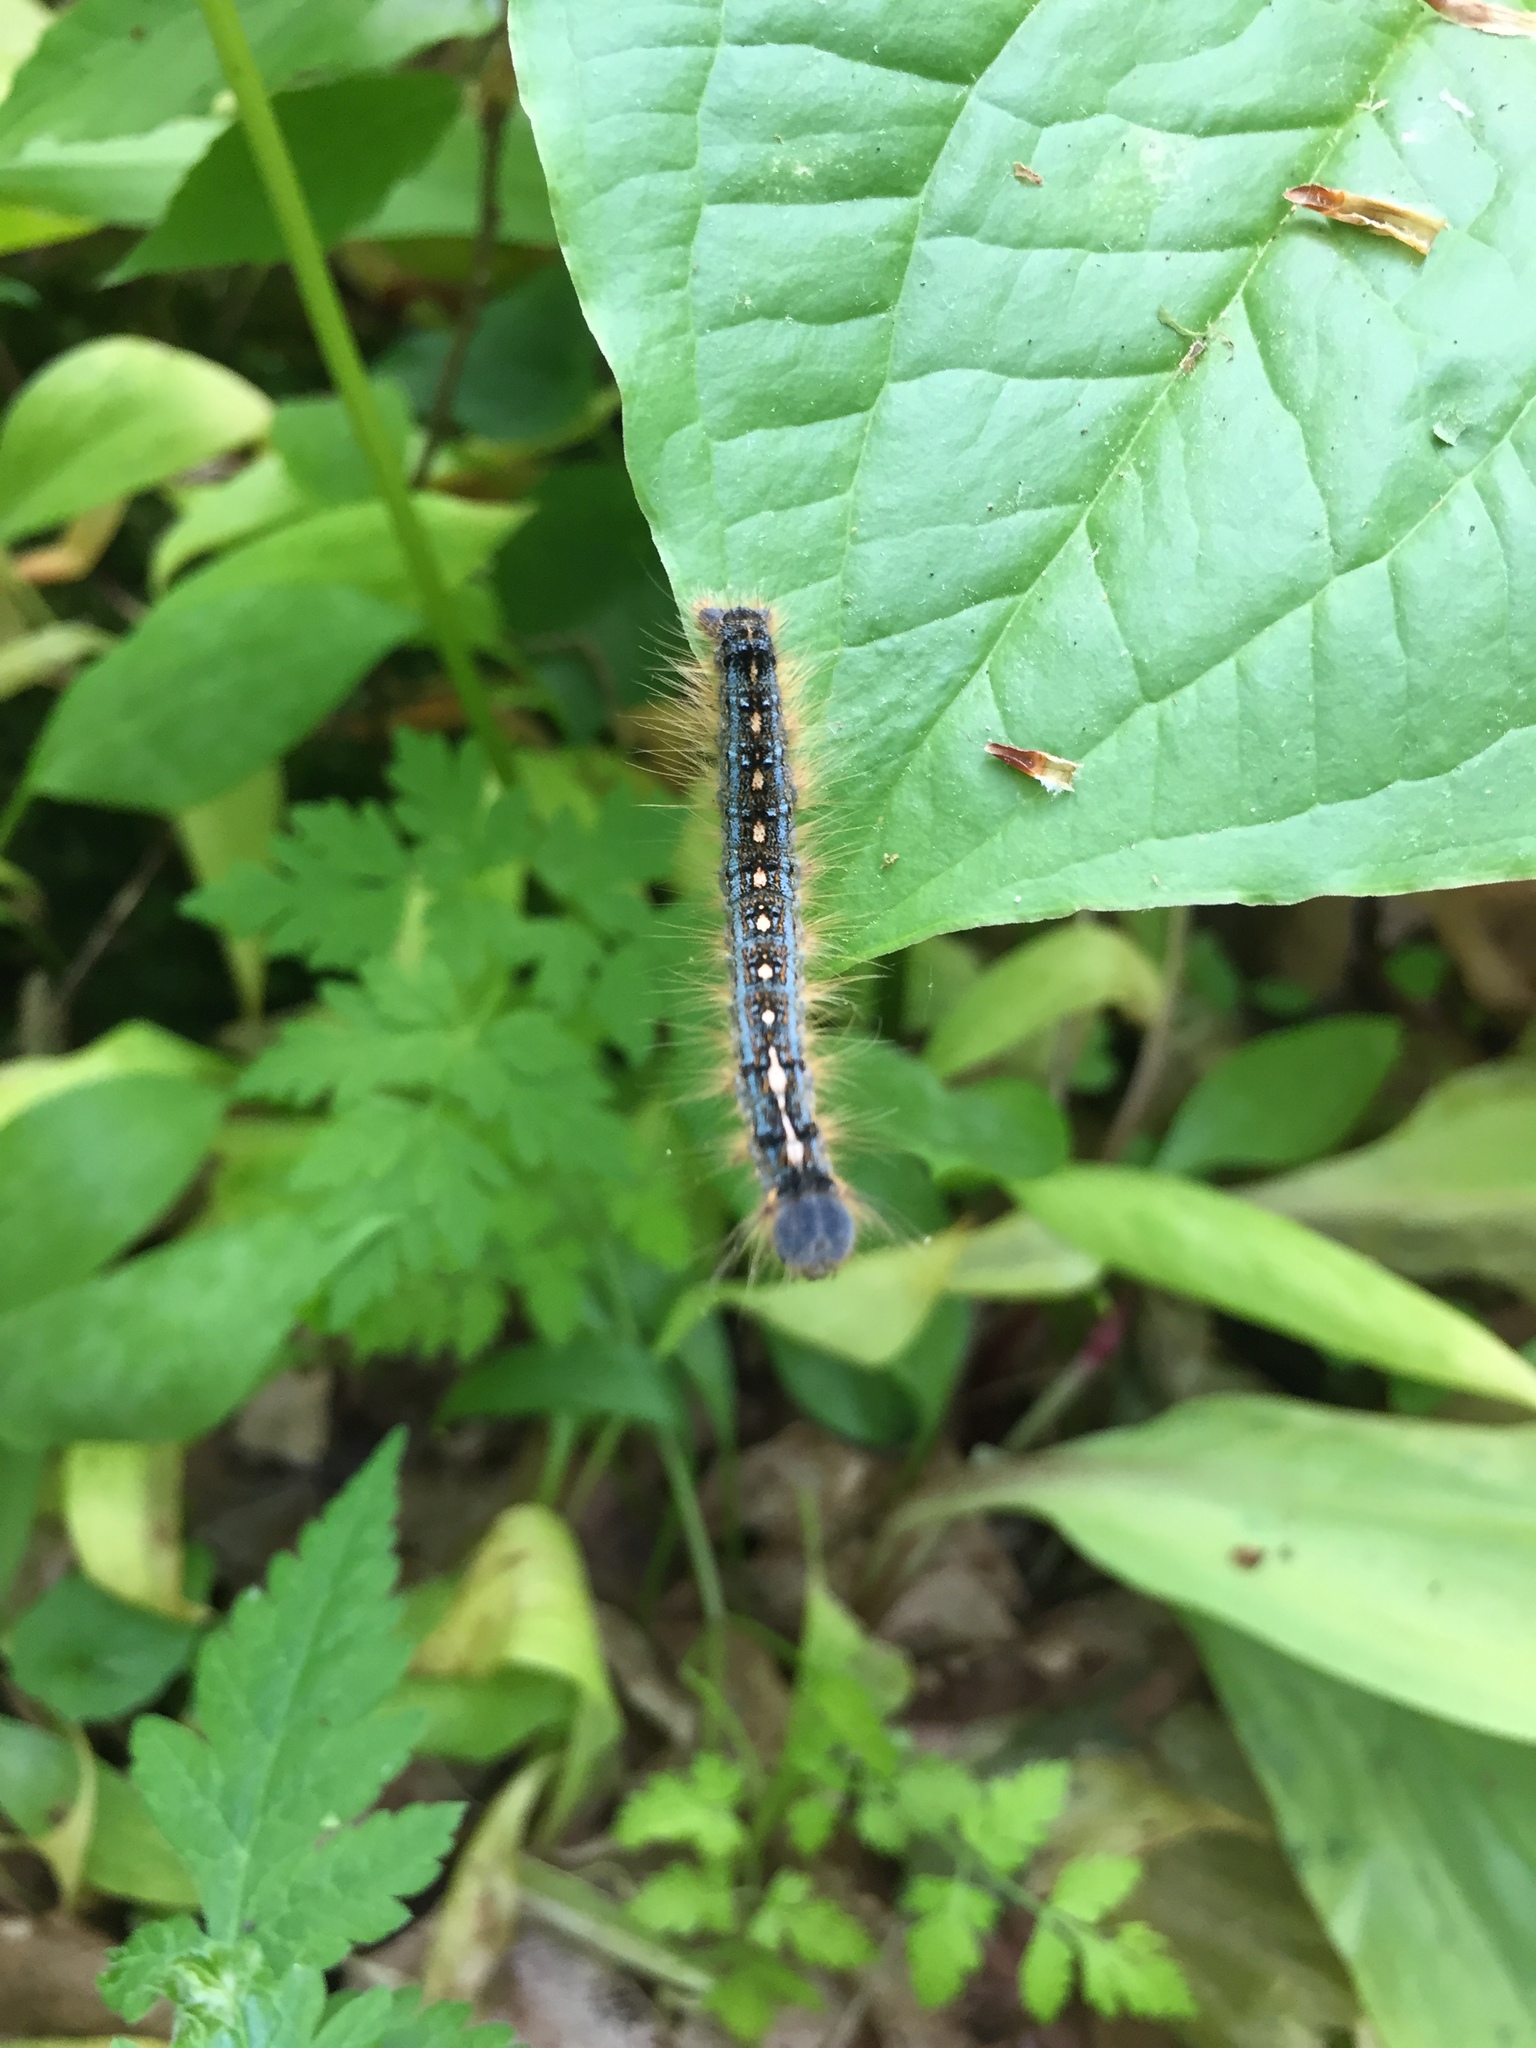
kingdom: Animalia
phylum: Arthropoda
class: Insecta
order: Lepidoptera
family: Lasiocampidae
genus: Malacosoma
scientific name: Malacosoma disstria
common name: Forest tent caterpillar
